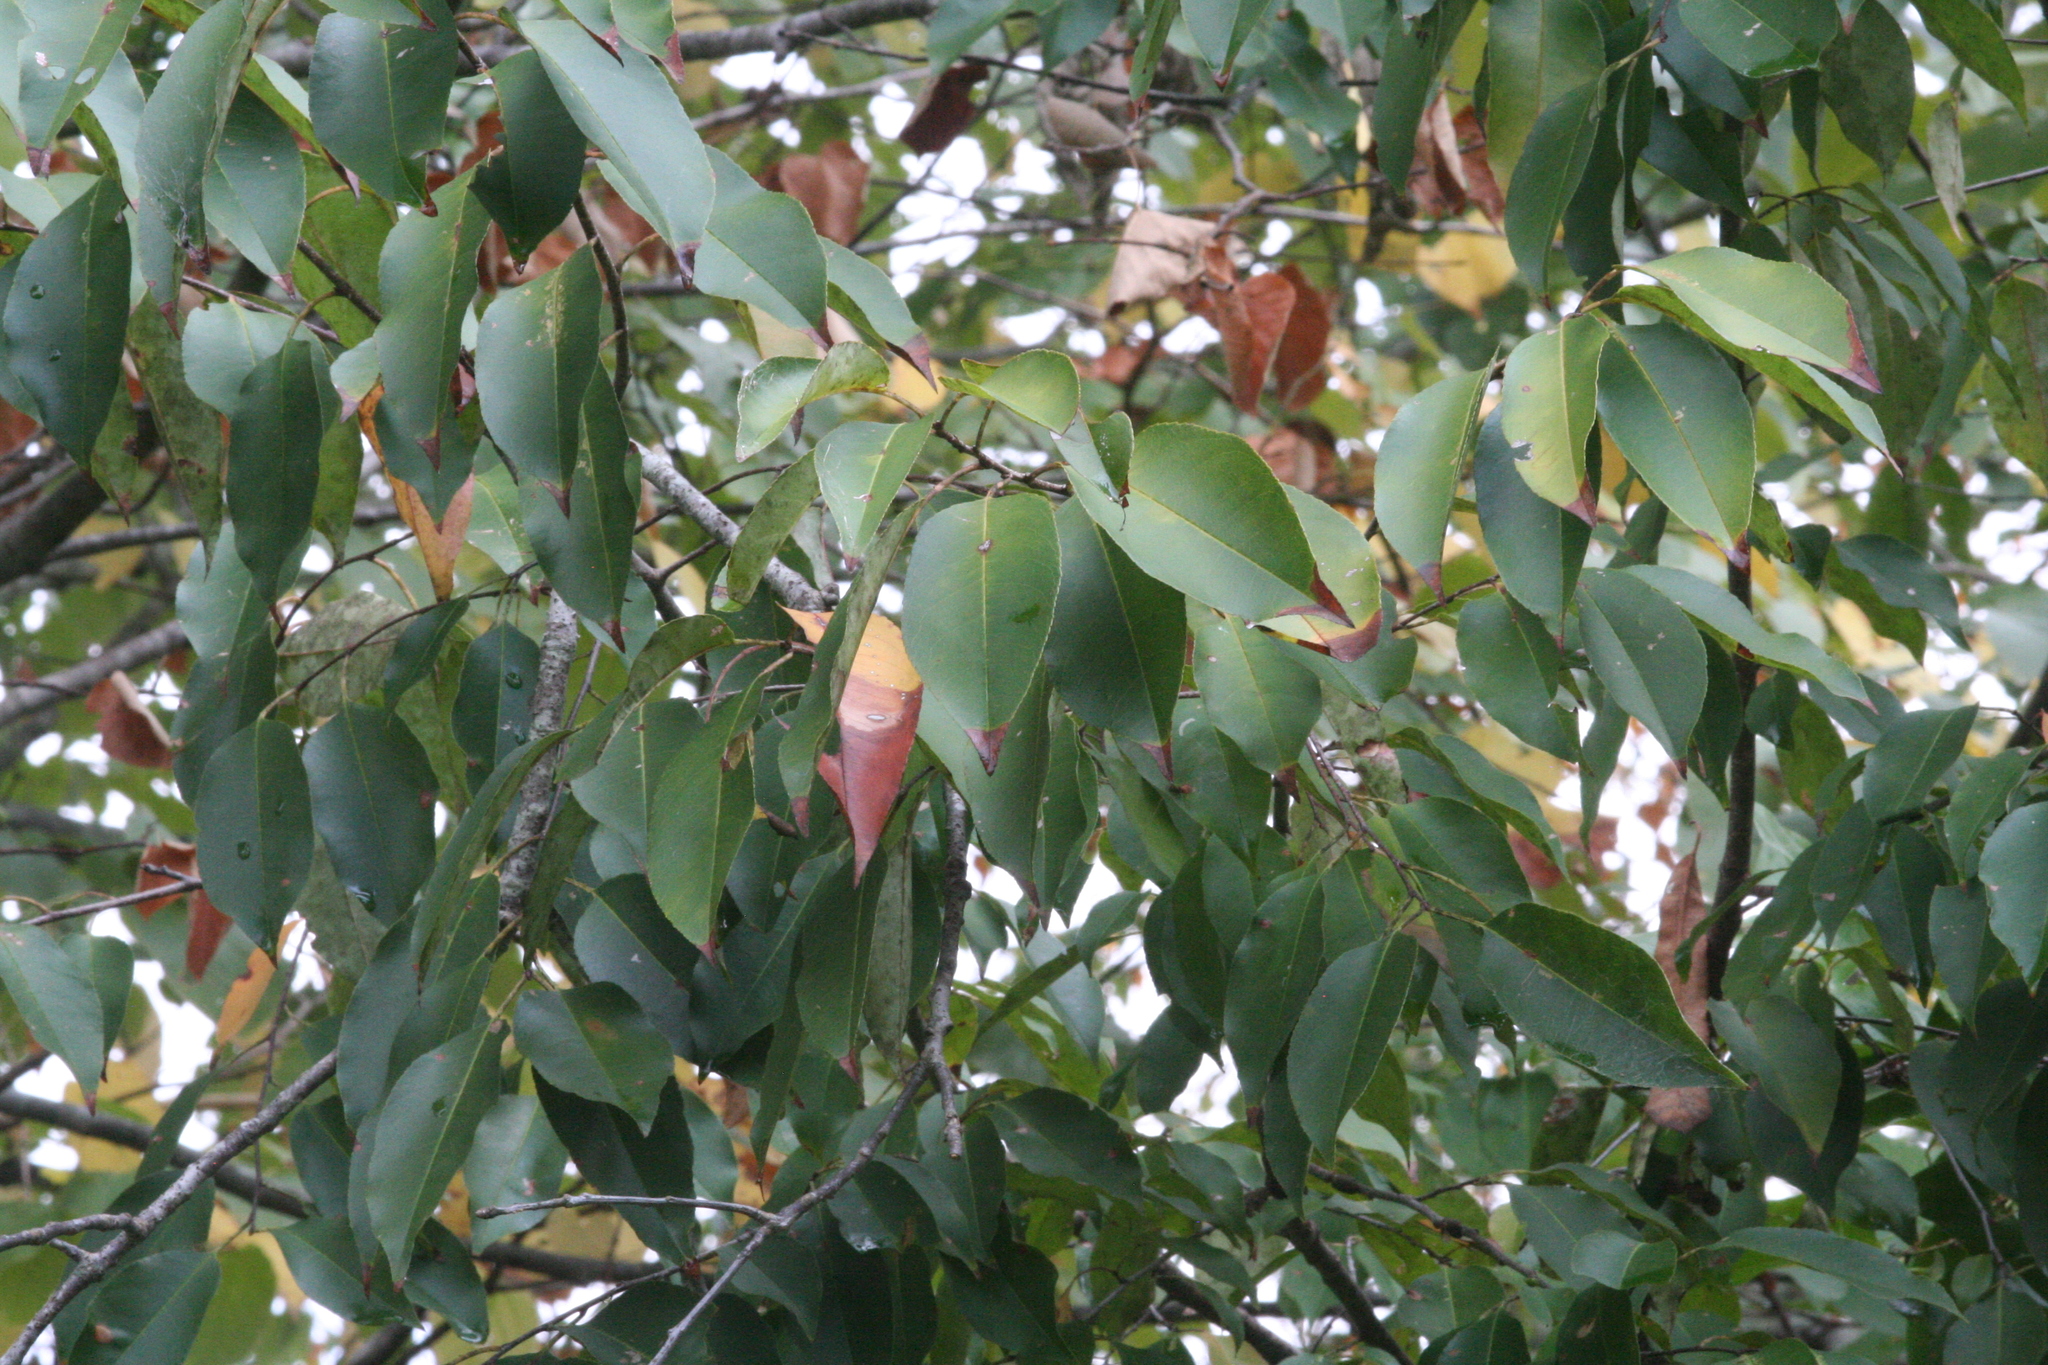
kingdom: Plantae
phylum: Tracheophyta
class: Magnoliopsida
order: Rosales
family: Rosaceae
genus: Prunus
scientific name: Prunus serotina
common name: Black cherry
